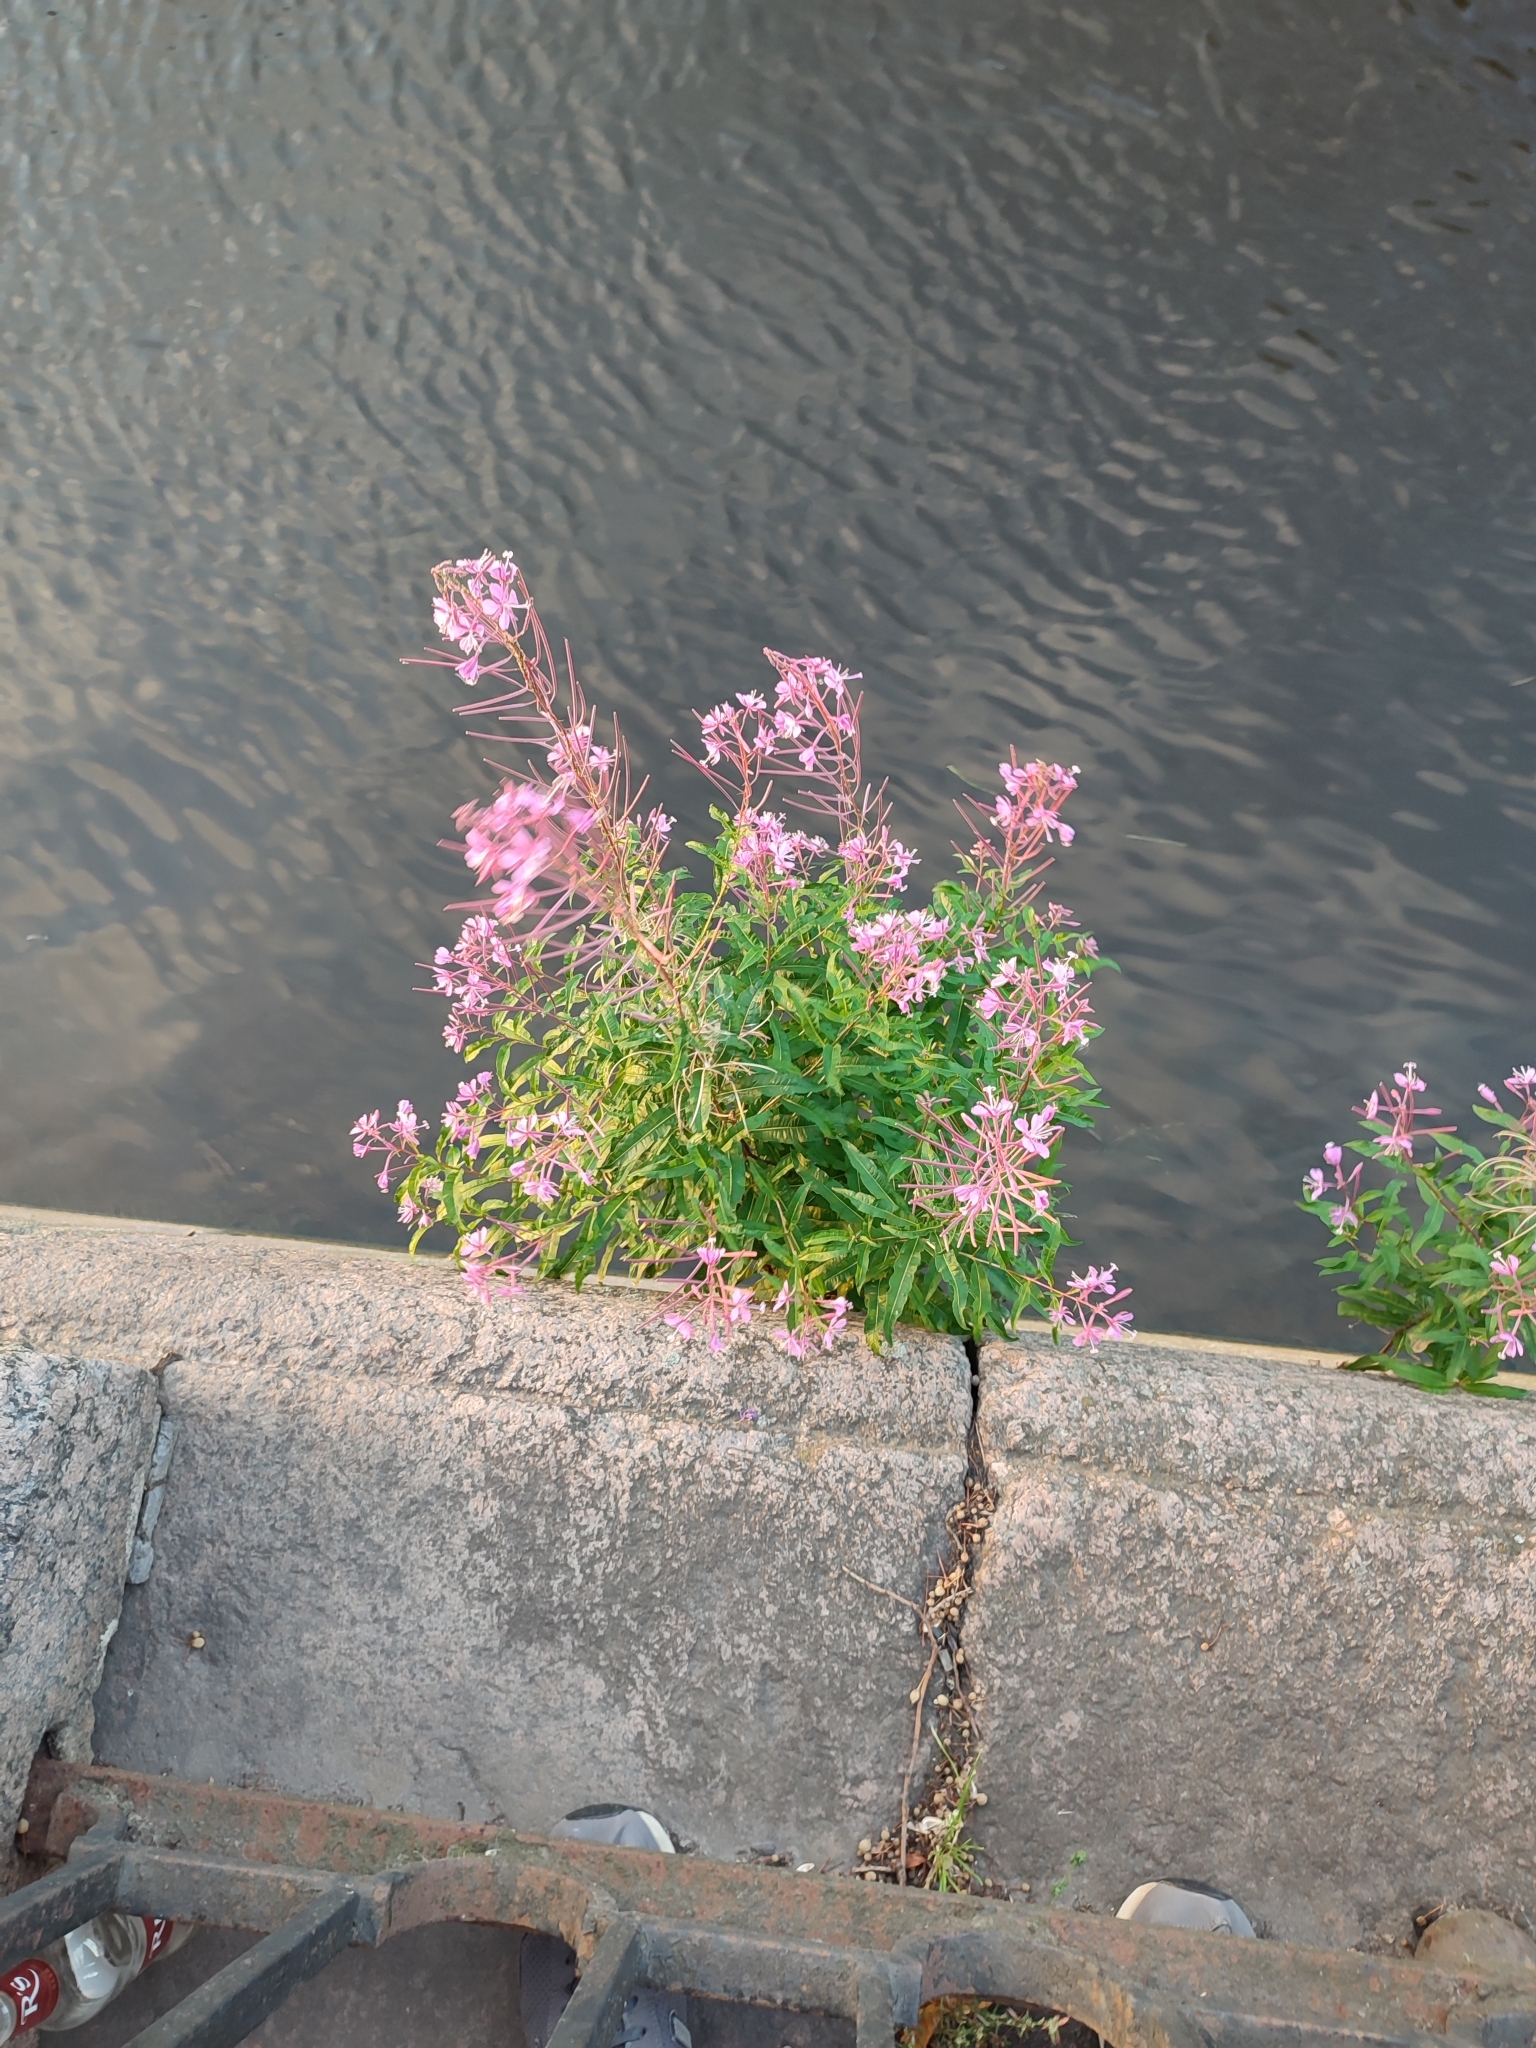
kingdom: Plantae
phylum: Tracheophyta
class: Magnoliopsida
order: Myrtales
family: Onagraceae
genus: Chamaenerion
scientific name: Chamaenerion angustifolium
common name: Fireweed
